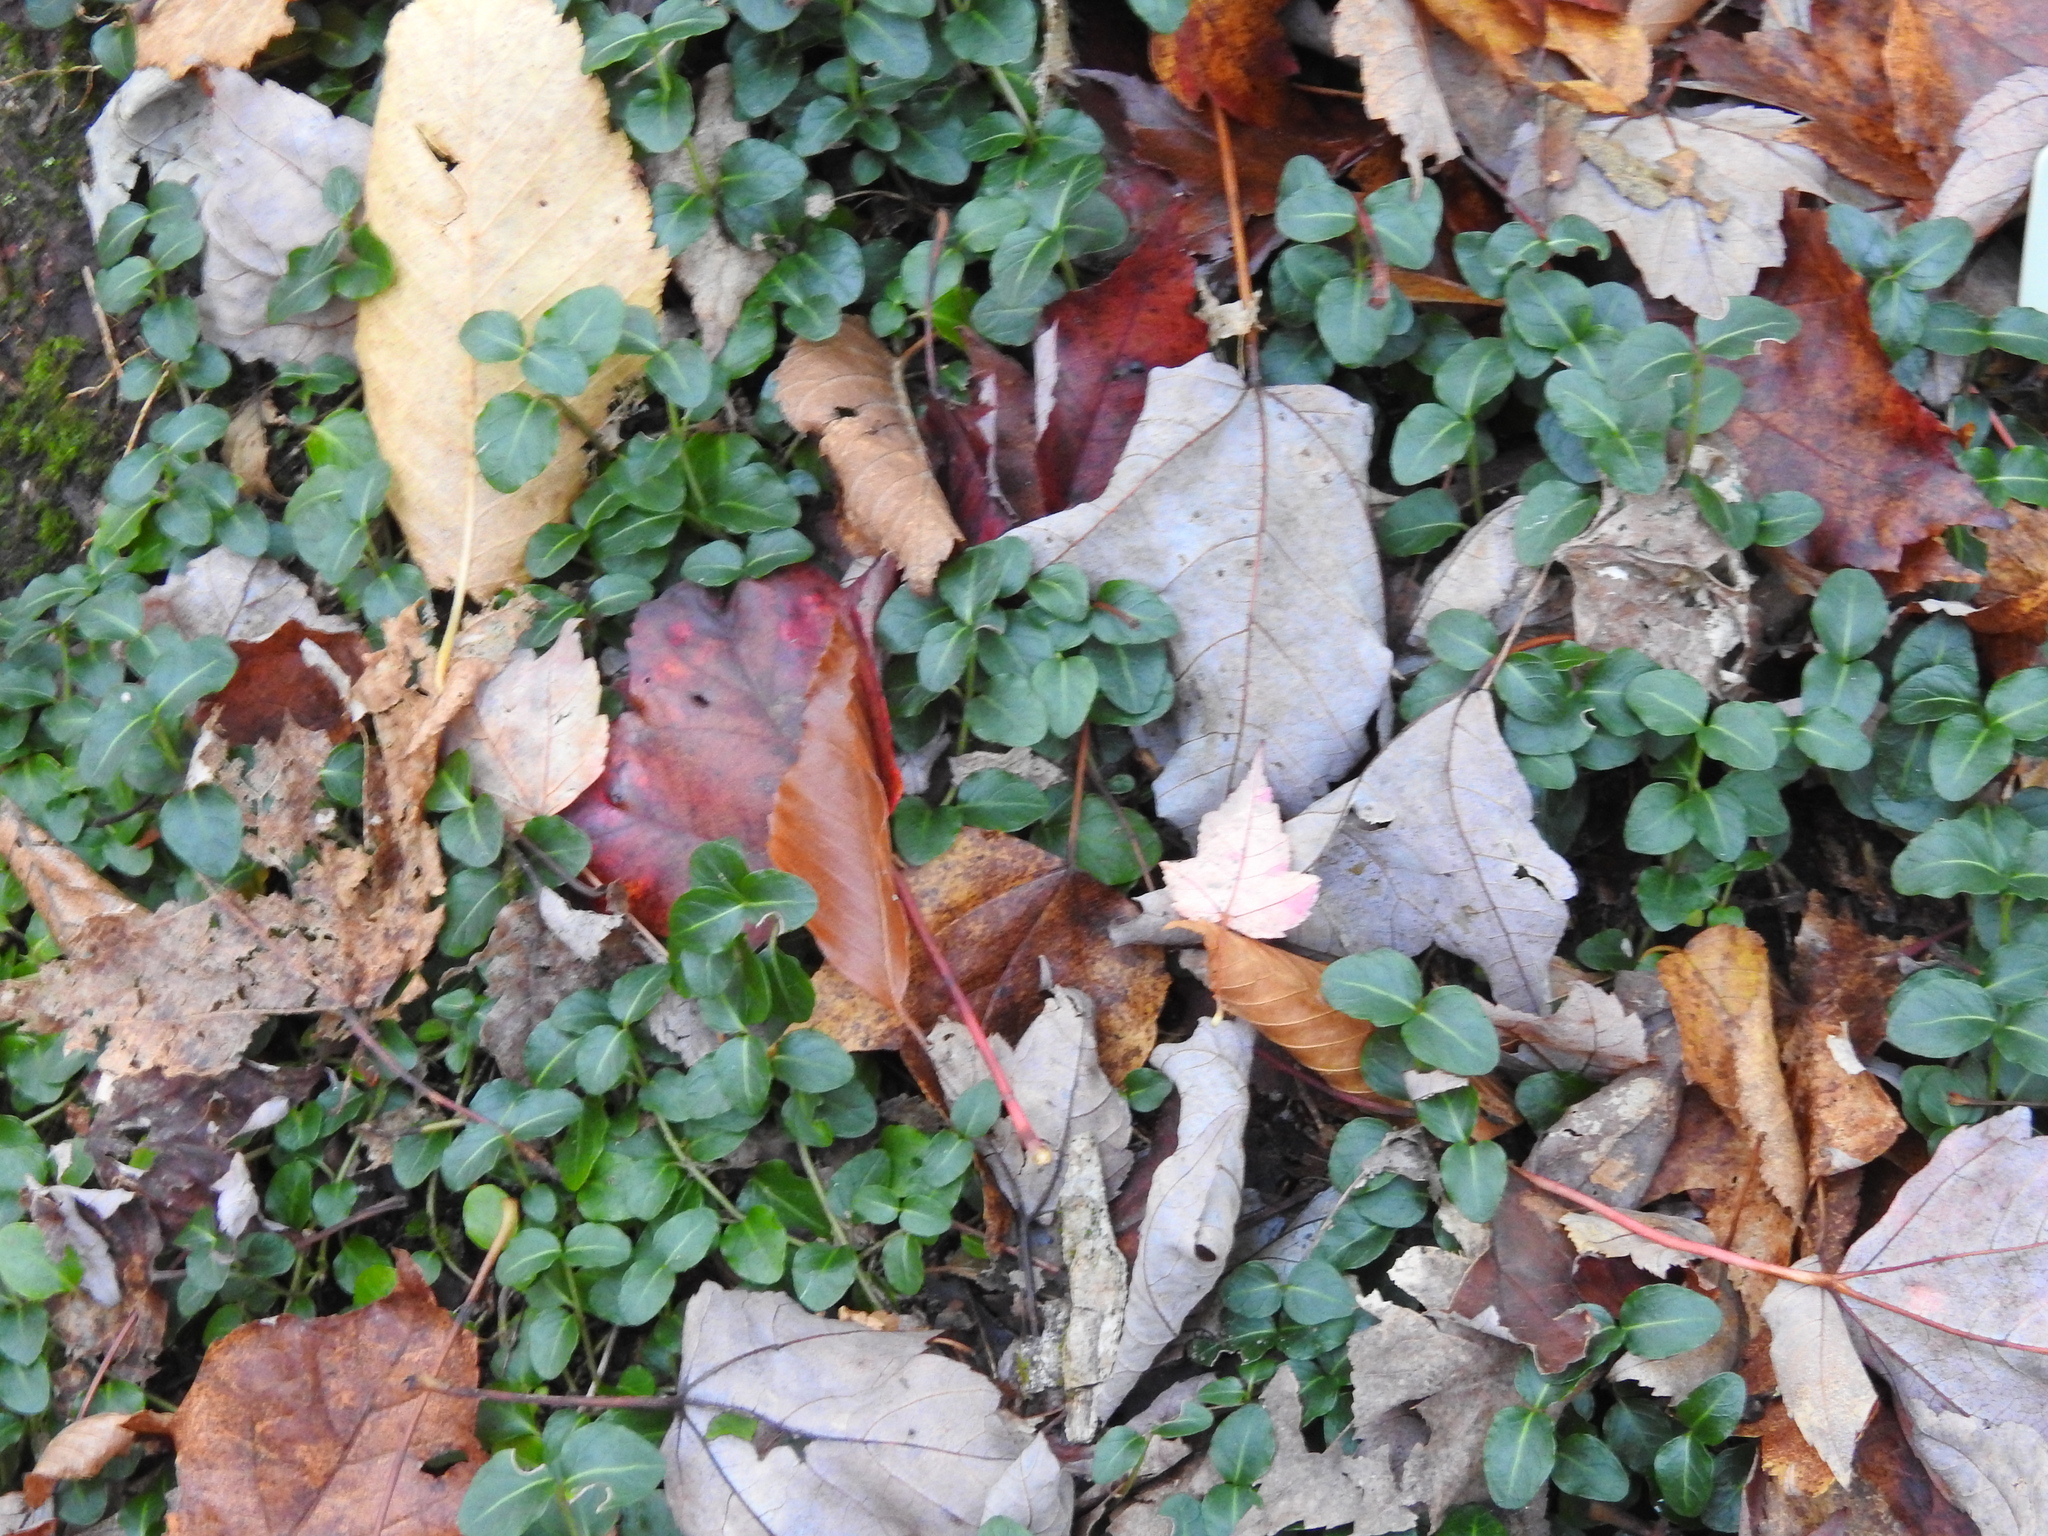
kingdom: Plantae
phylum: Tracheophyta
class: Magnoliopsida
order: Gentianales
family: Rubiaceae
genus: Mitchella
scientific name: Mitchella repens
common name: Partridge-berry
